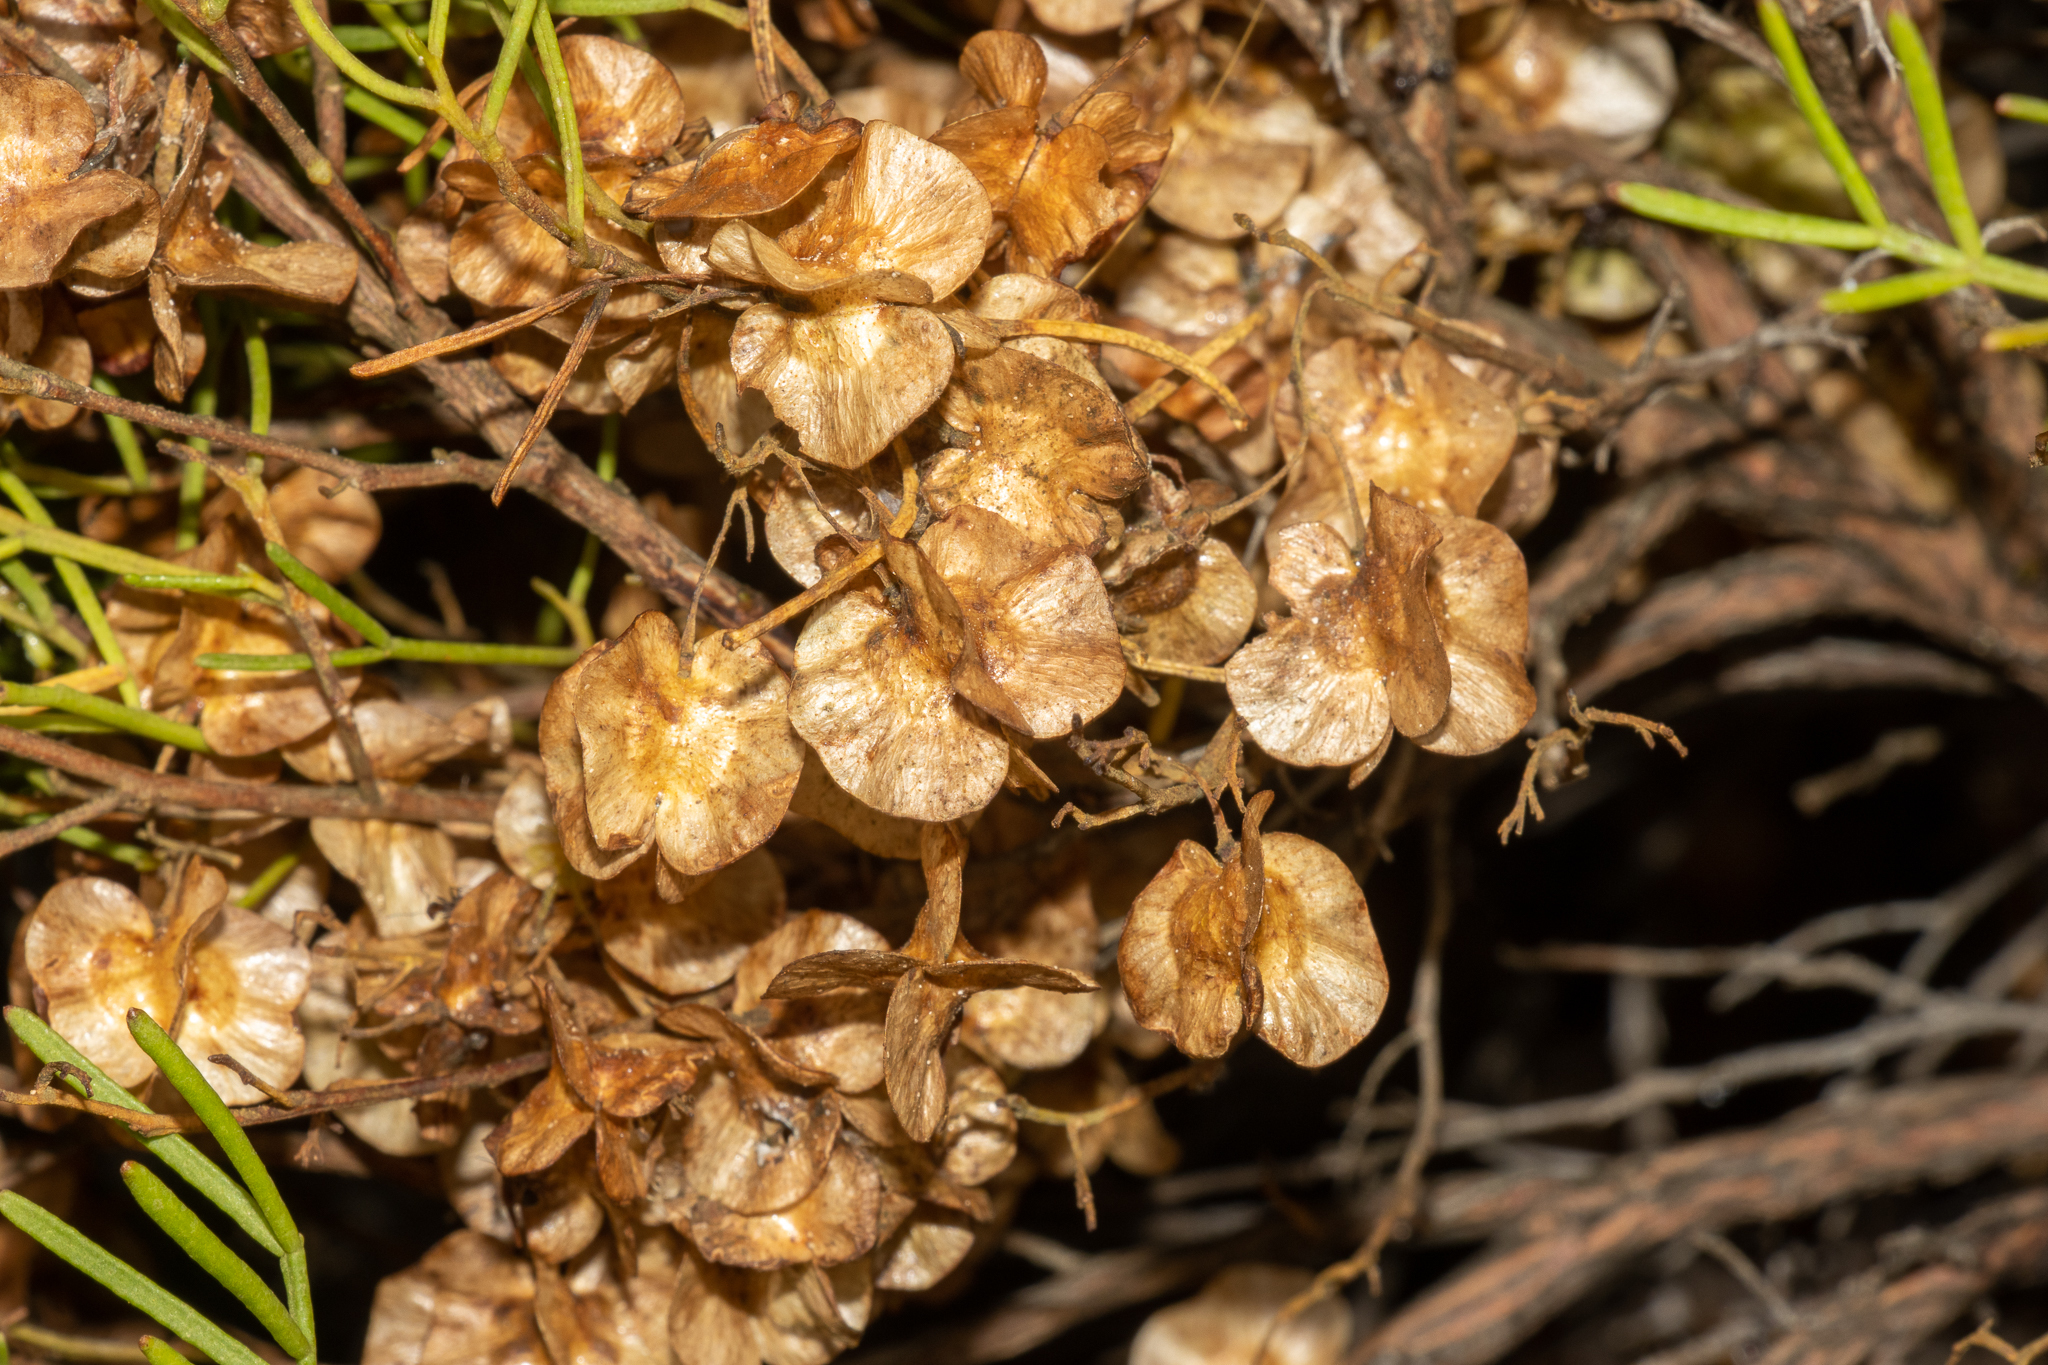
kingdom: Plantae
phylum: Tracheophyta
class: Magnoliopsida
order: Sapindales
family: Sapindaceae
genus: Dodonaea
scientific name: Dodonaea stenozyga
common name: Desert hopbush
